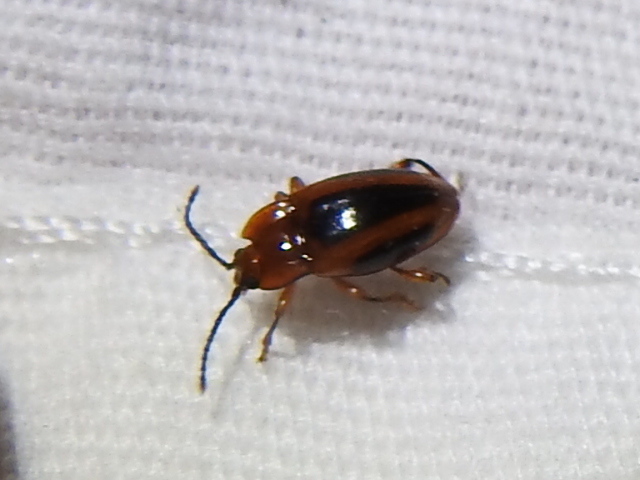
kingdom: Animalia
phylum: Arthropoda
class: Insecta
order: Coleoptera
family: Endomychidae
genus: Aphorista
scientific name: Aphorista vittata
